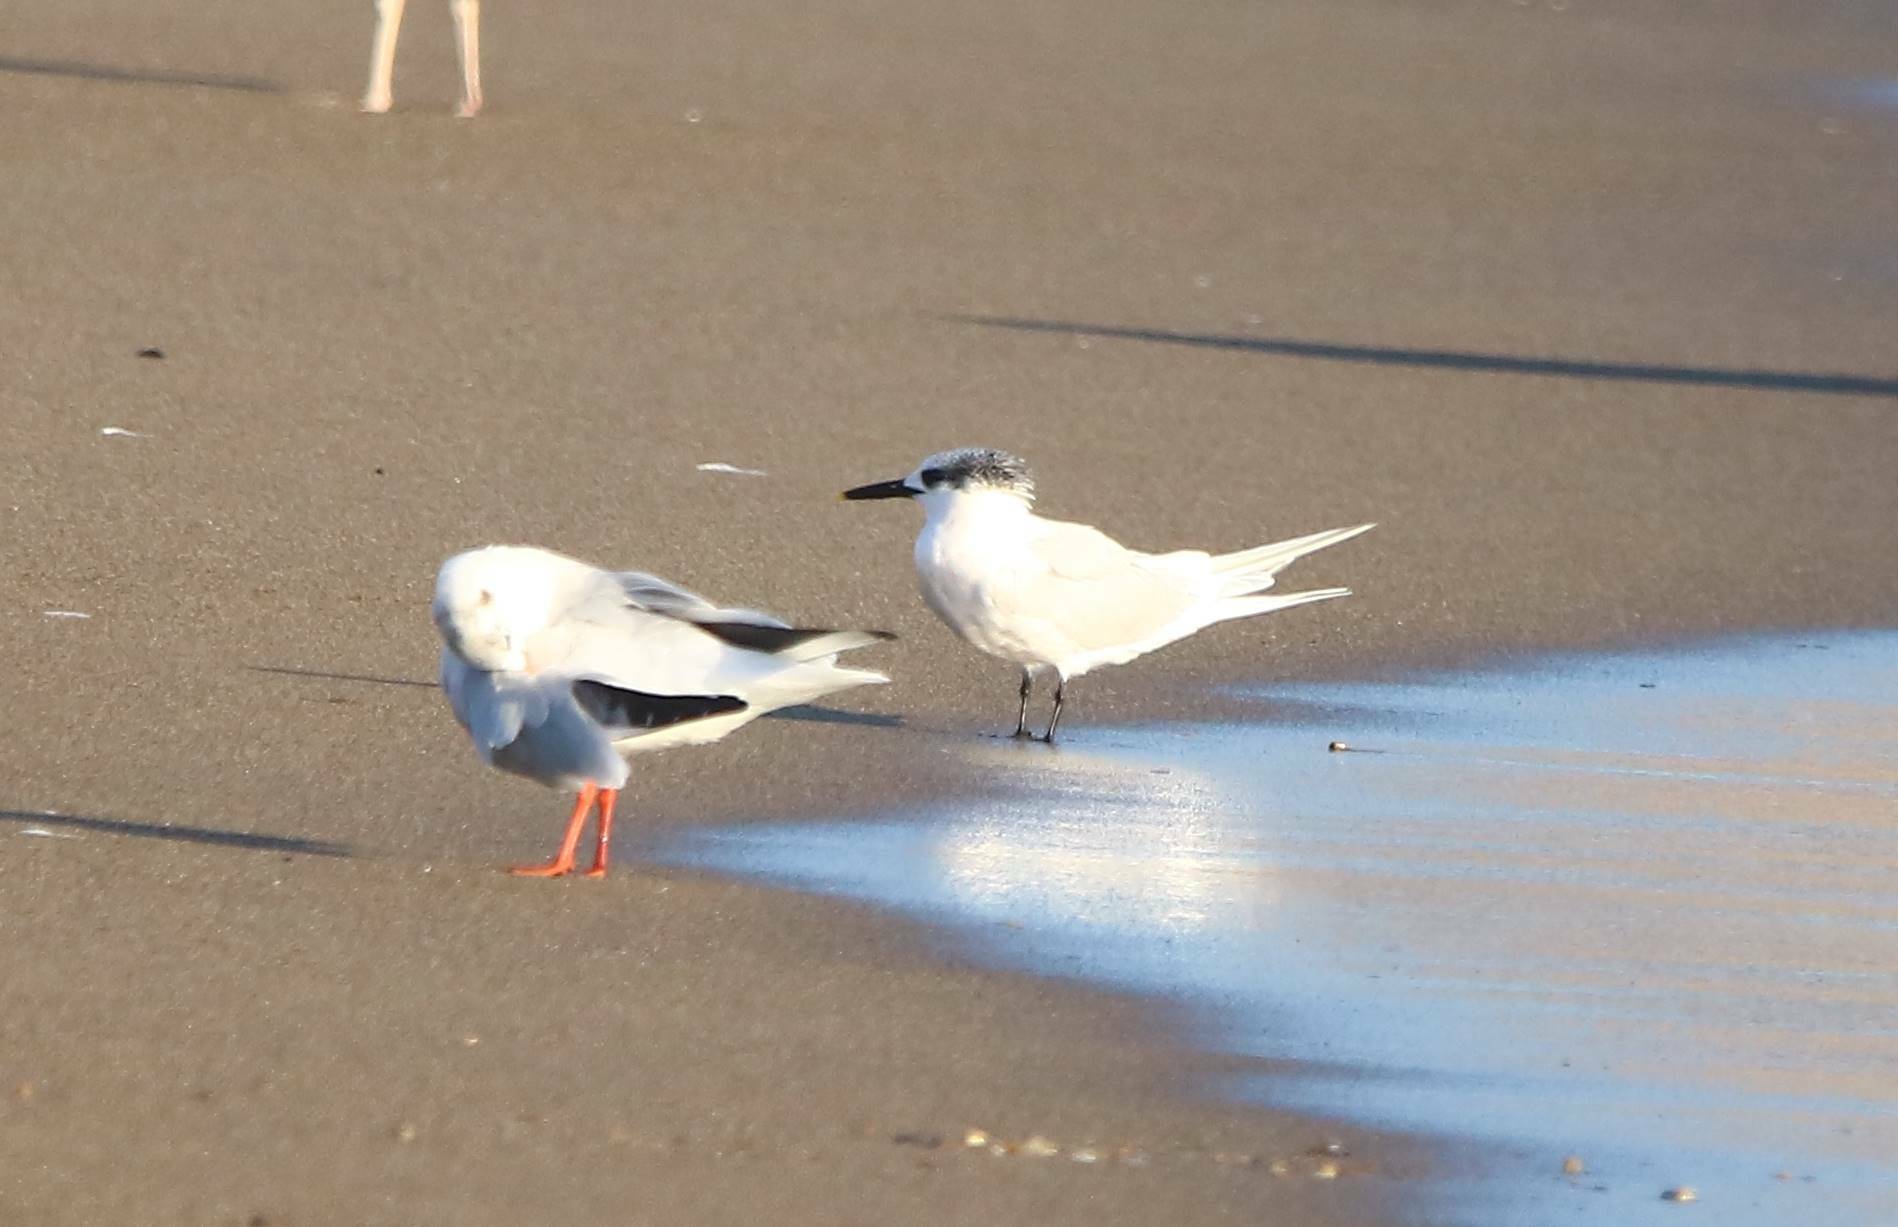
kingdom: Animalia
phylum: Chordata
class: Aves
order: Charadriiformes
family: Laridae
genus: Thalasseus
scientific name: Thalasseus sandvicensis
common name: Sandwich tern
